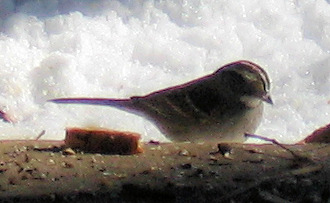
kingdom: Animalia
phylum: Chordata
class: Aves
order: Passeriformes
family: Passerellidae
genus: Zonotrichia
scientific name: Zonotrichia albicollis
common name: White-throated sparrow
